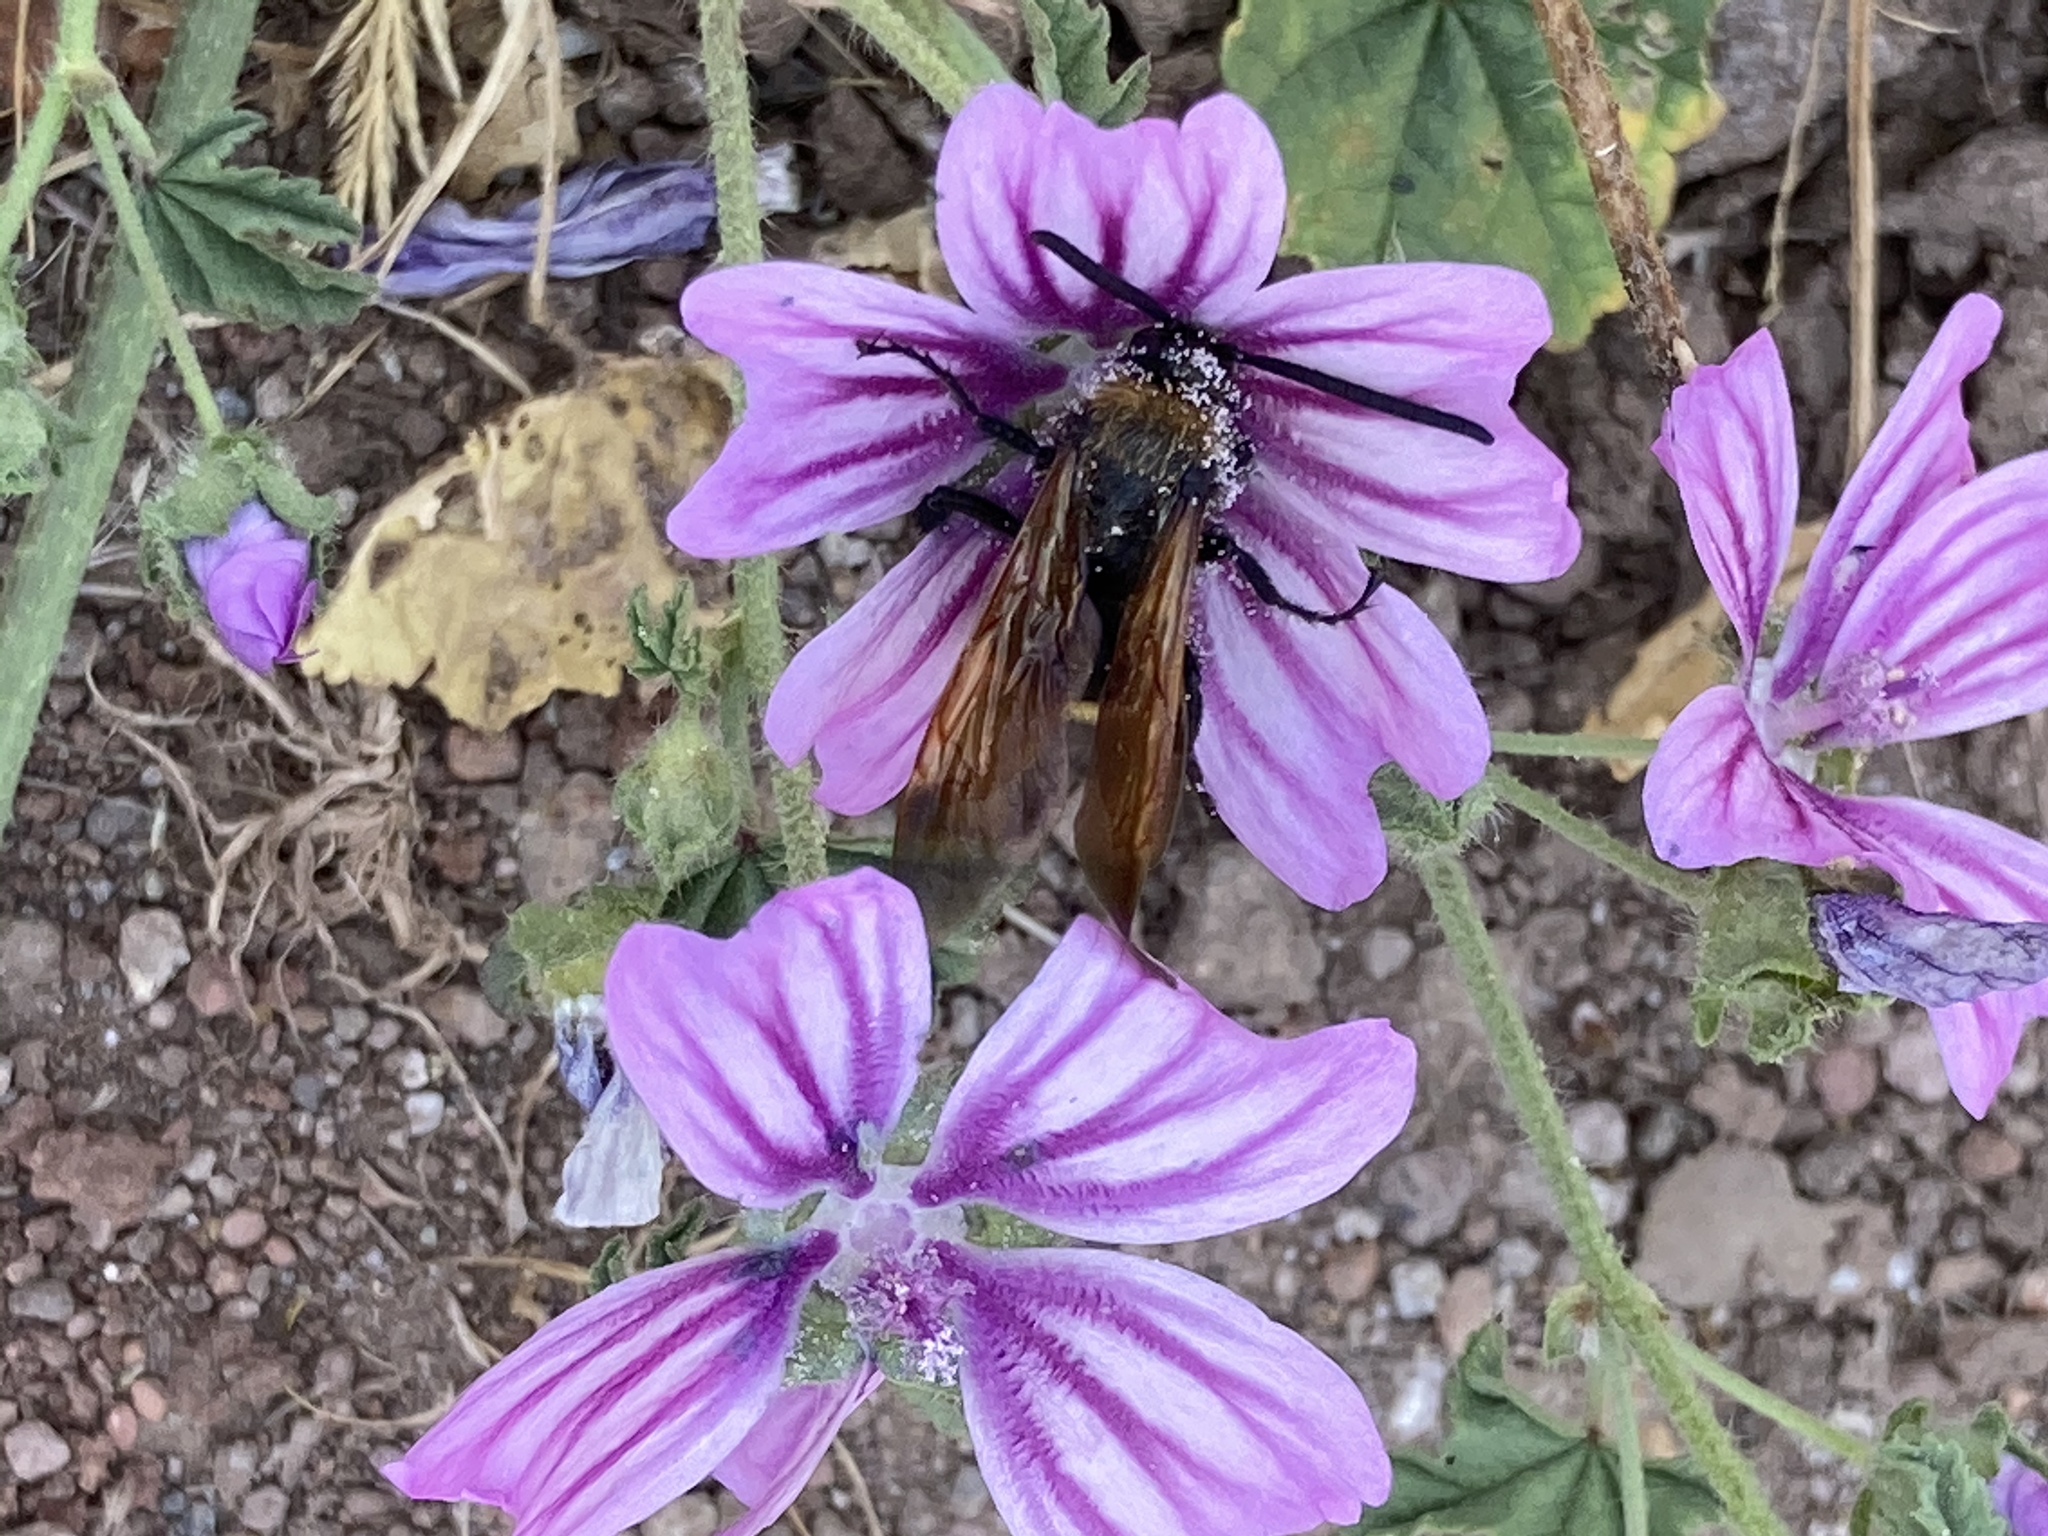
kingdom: Animalia
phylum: Arthropoda
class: Insecta
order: Hymenoptera
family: Scoliidae
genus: Megascolia
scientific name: Megascolia maculata
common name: Mammoth wasp
